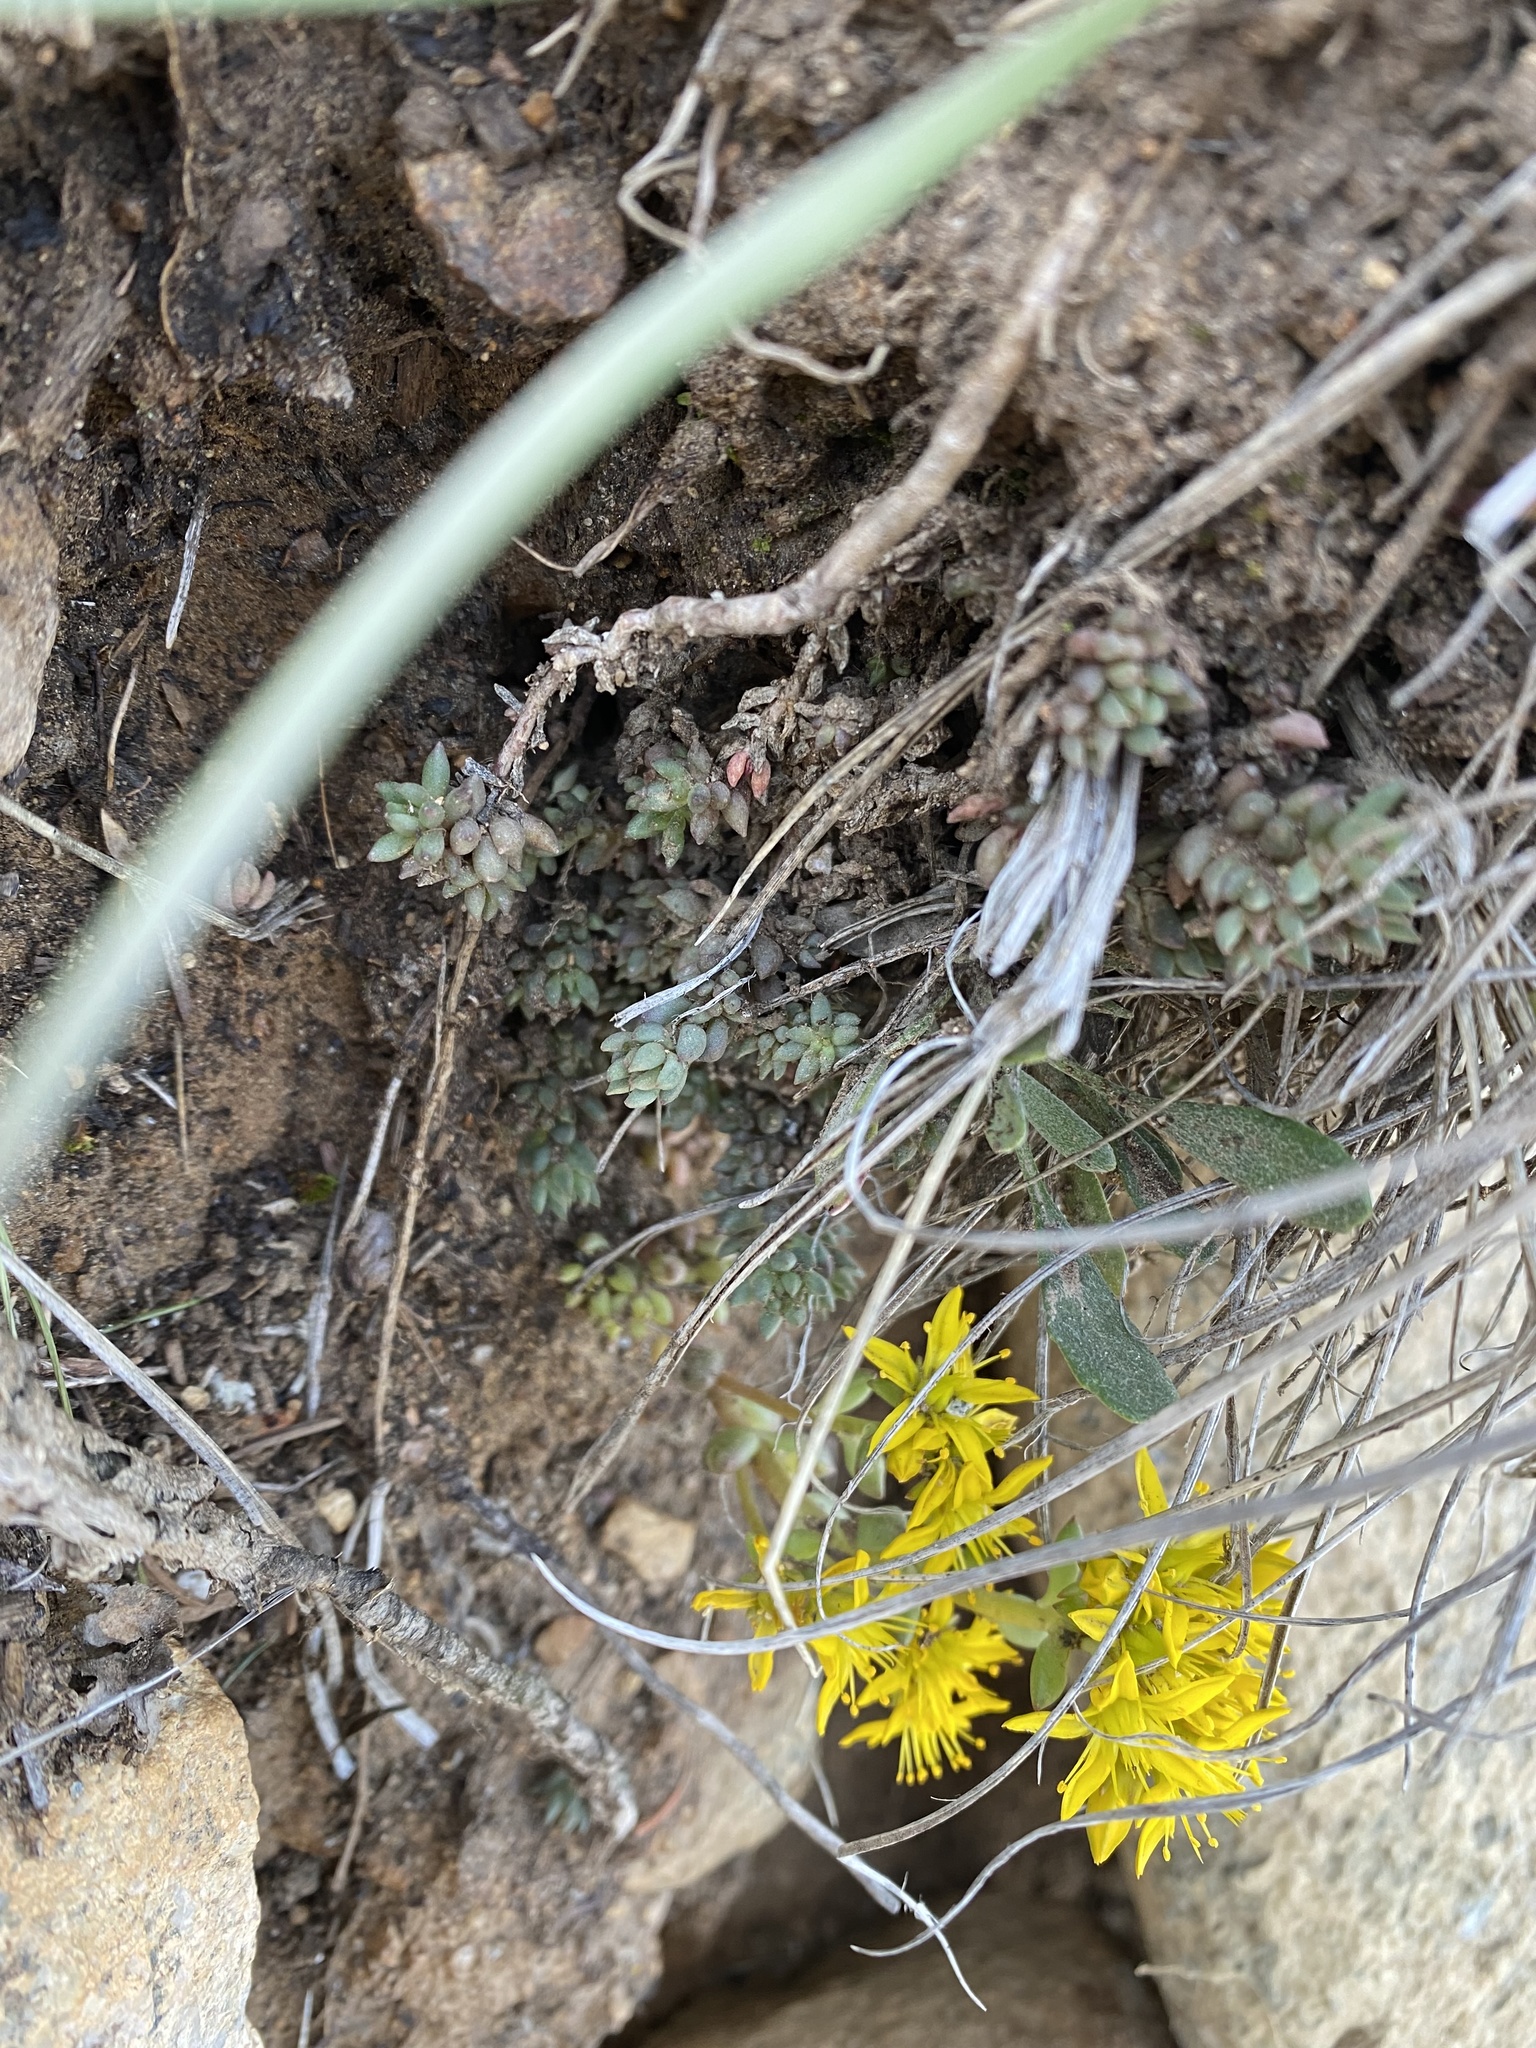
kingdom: Plantae
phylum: Tracheophyta
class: Magnoliopsida
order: Saxifragales
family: Crassulaceae
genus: Sedum
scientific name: Sedum lanceolatum
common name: Common stonecrop
